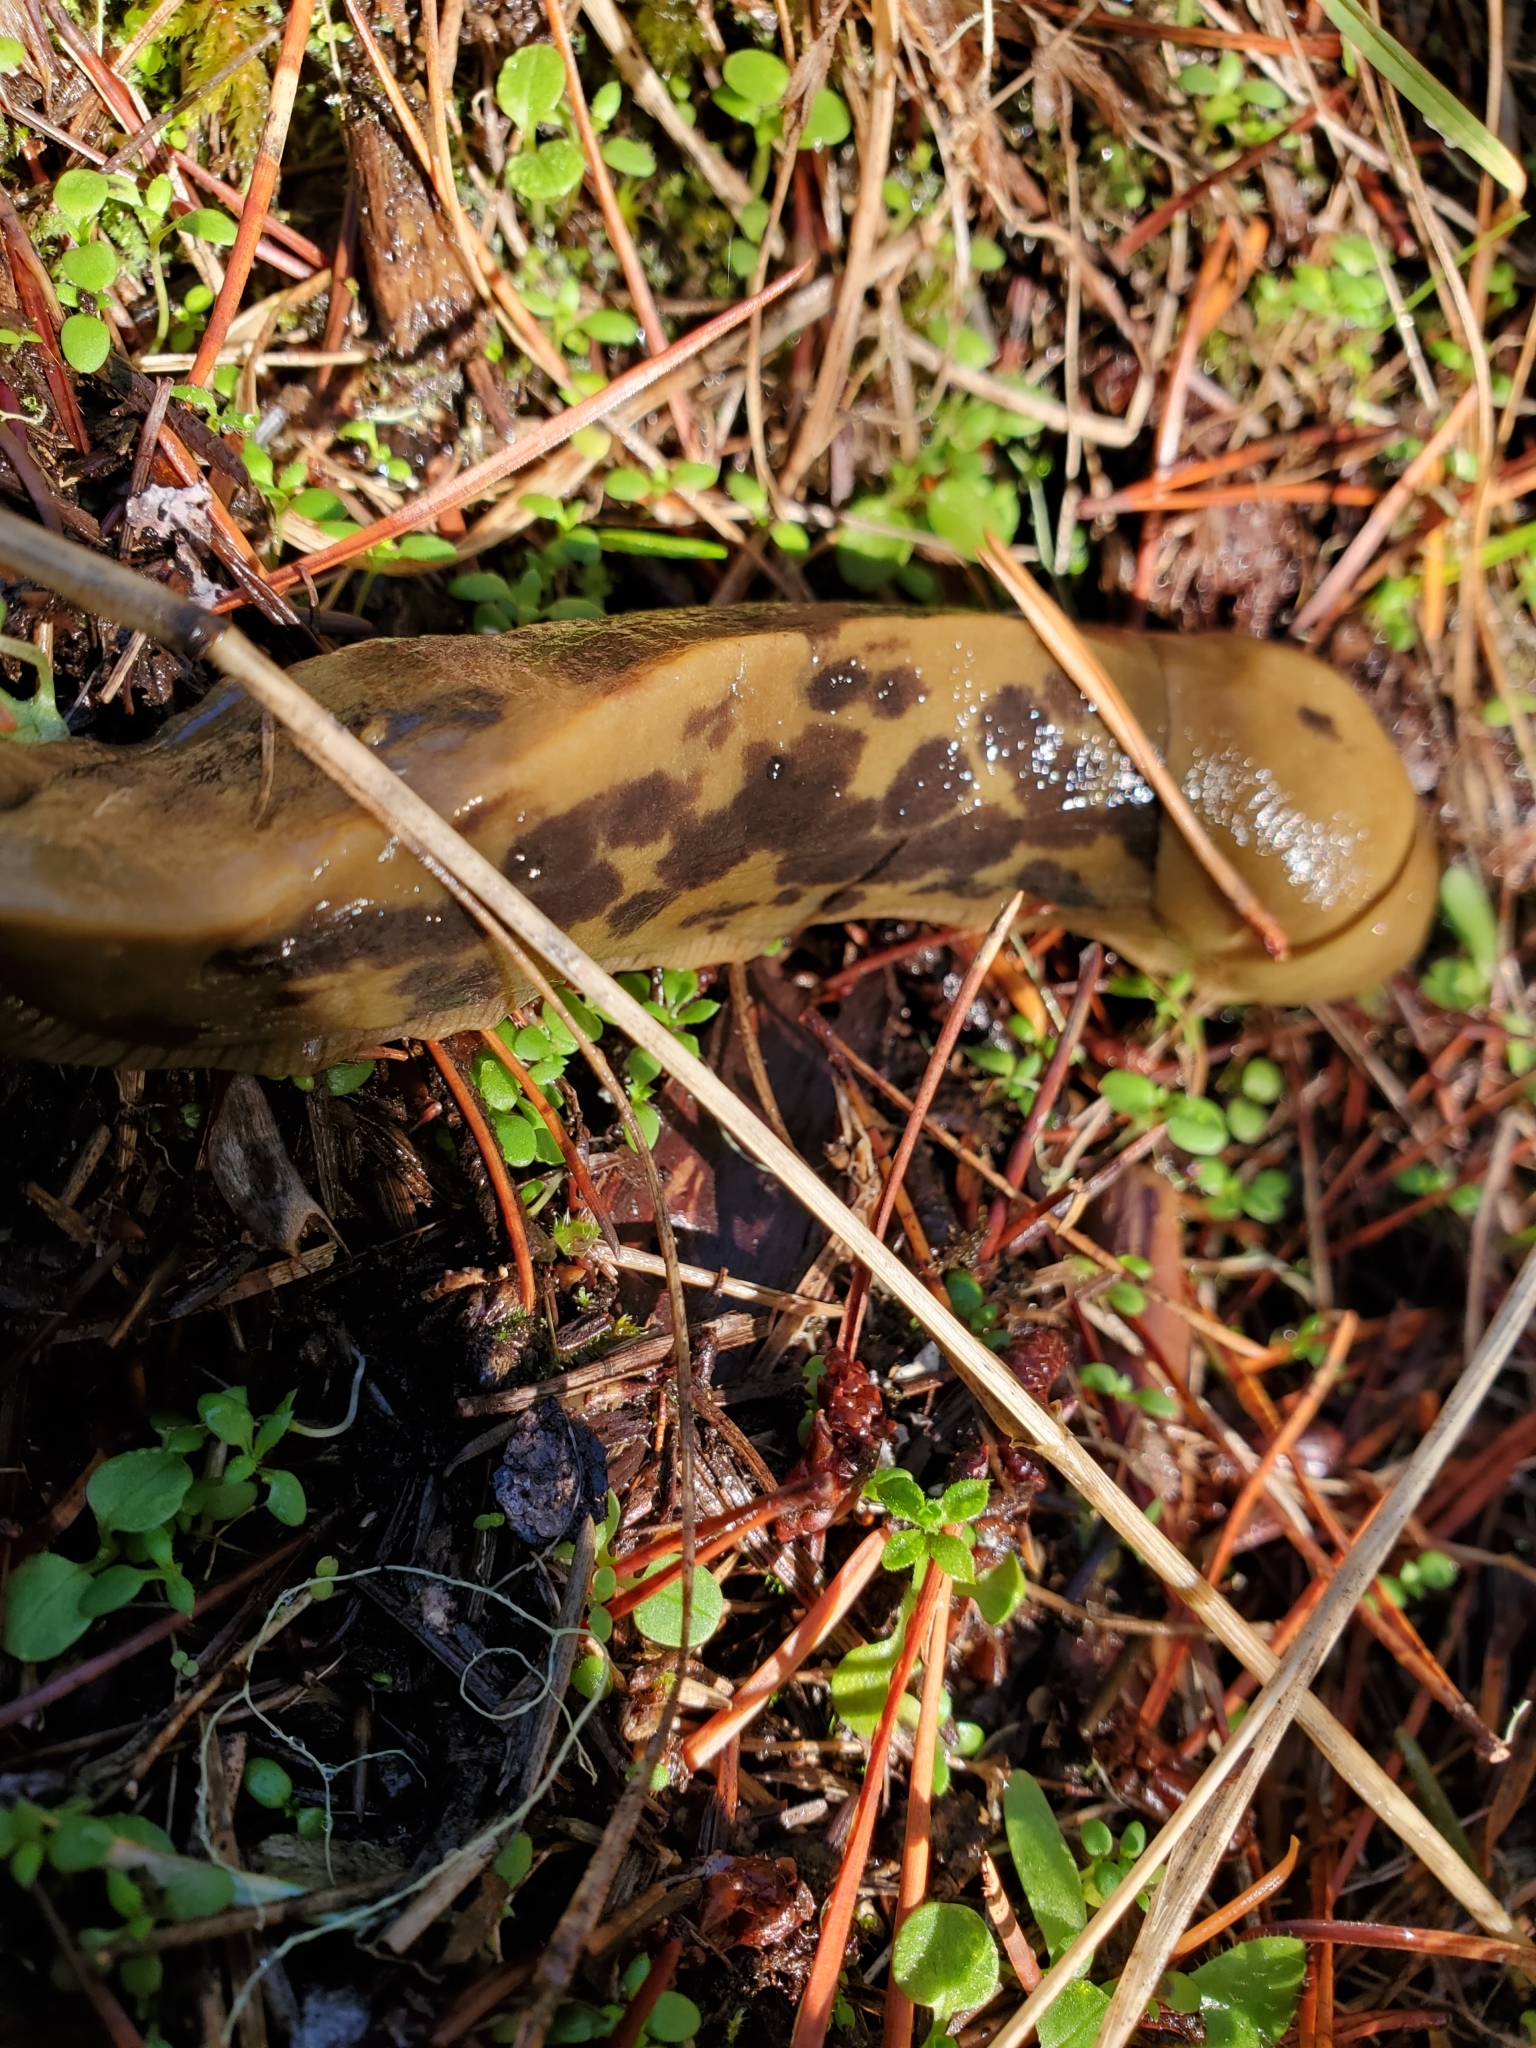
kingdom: Animalia
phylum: Mollusca
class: Gastropoda
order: Stylommatophora
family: Ariolimacidae
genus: Ariolimax
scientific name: Ariolimax columbianus
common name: Pacific banana slug
